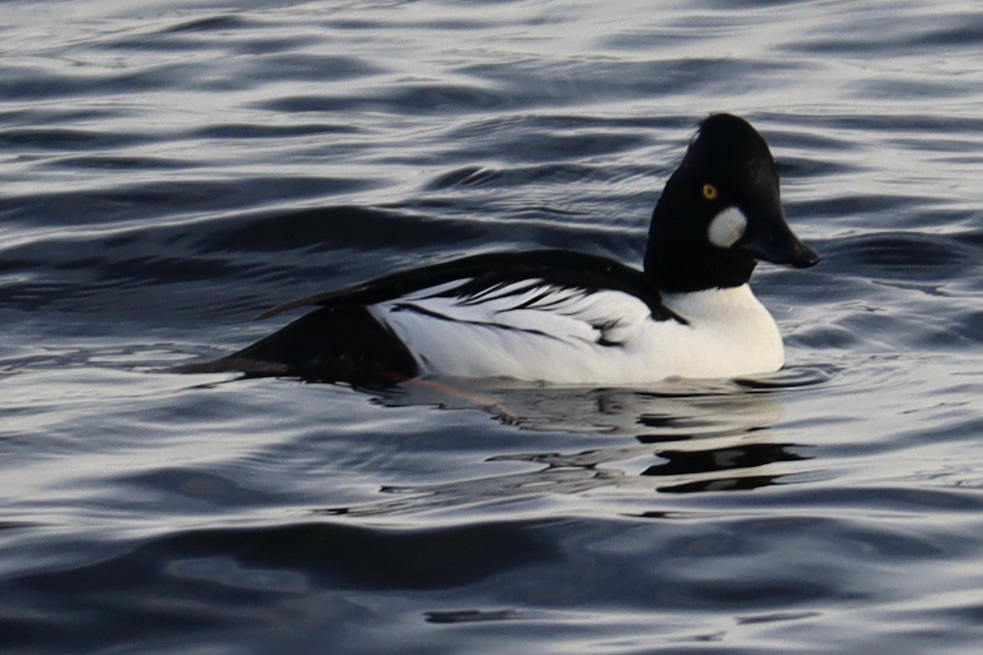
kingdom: Animalia
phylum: Chordata
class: Aves
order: Anseriformes
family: Anatidae
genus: Bucephala
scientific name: Bucephala clangula
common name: Common goldeneye
